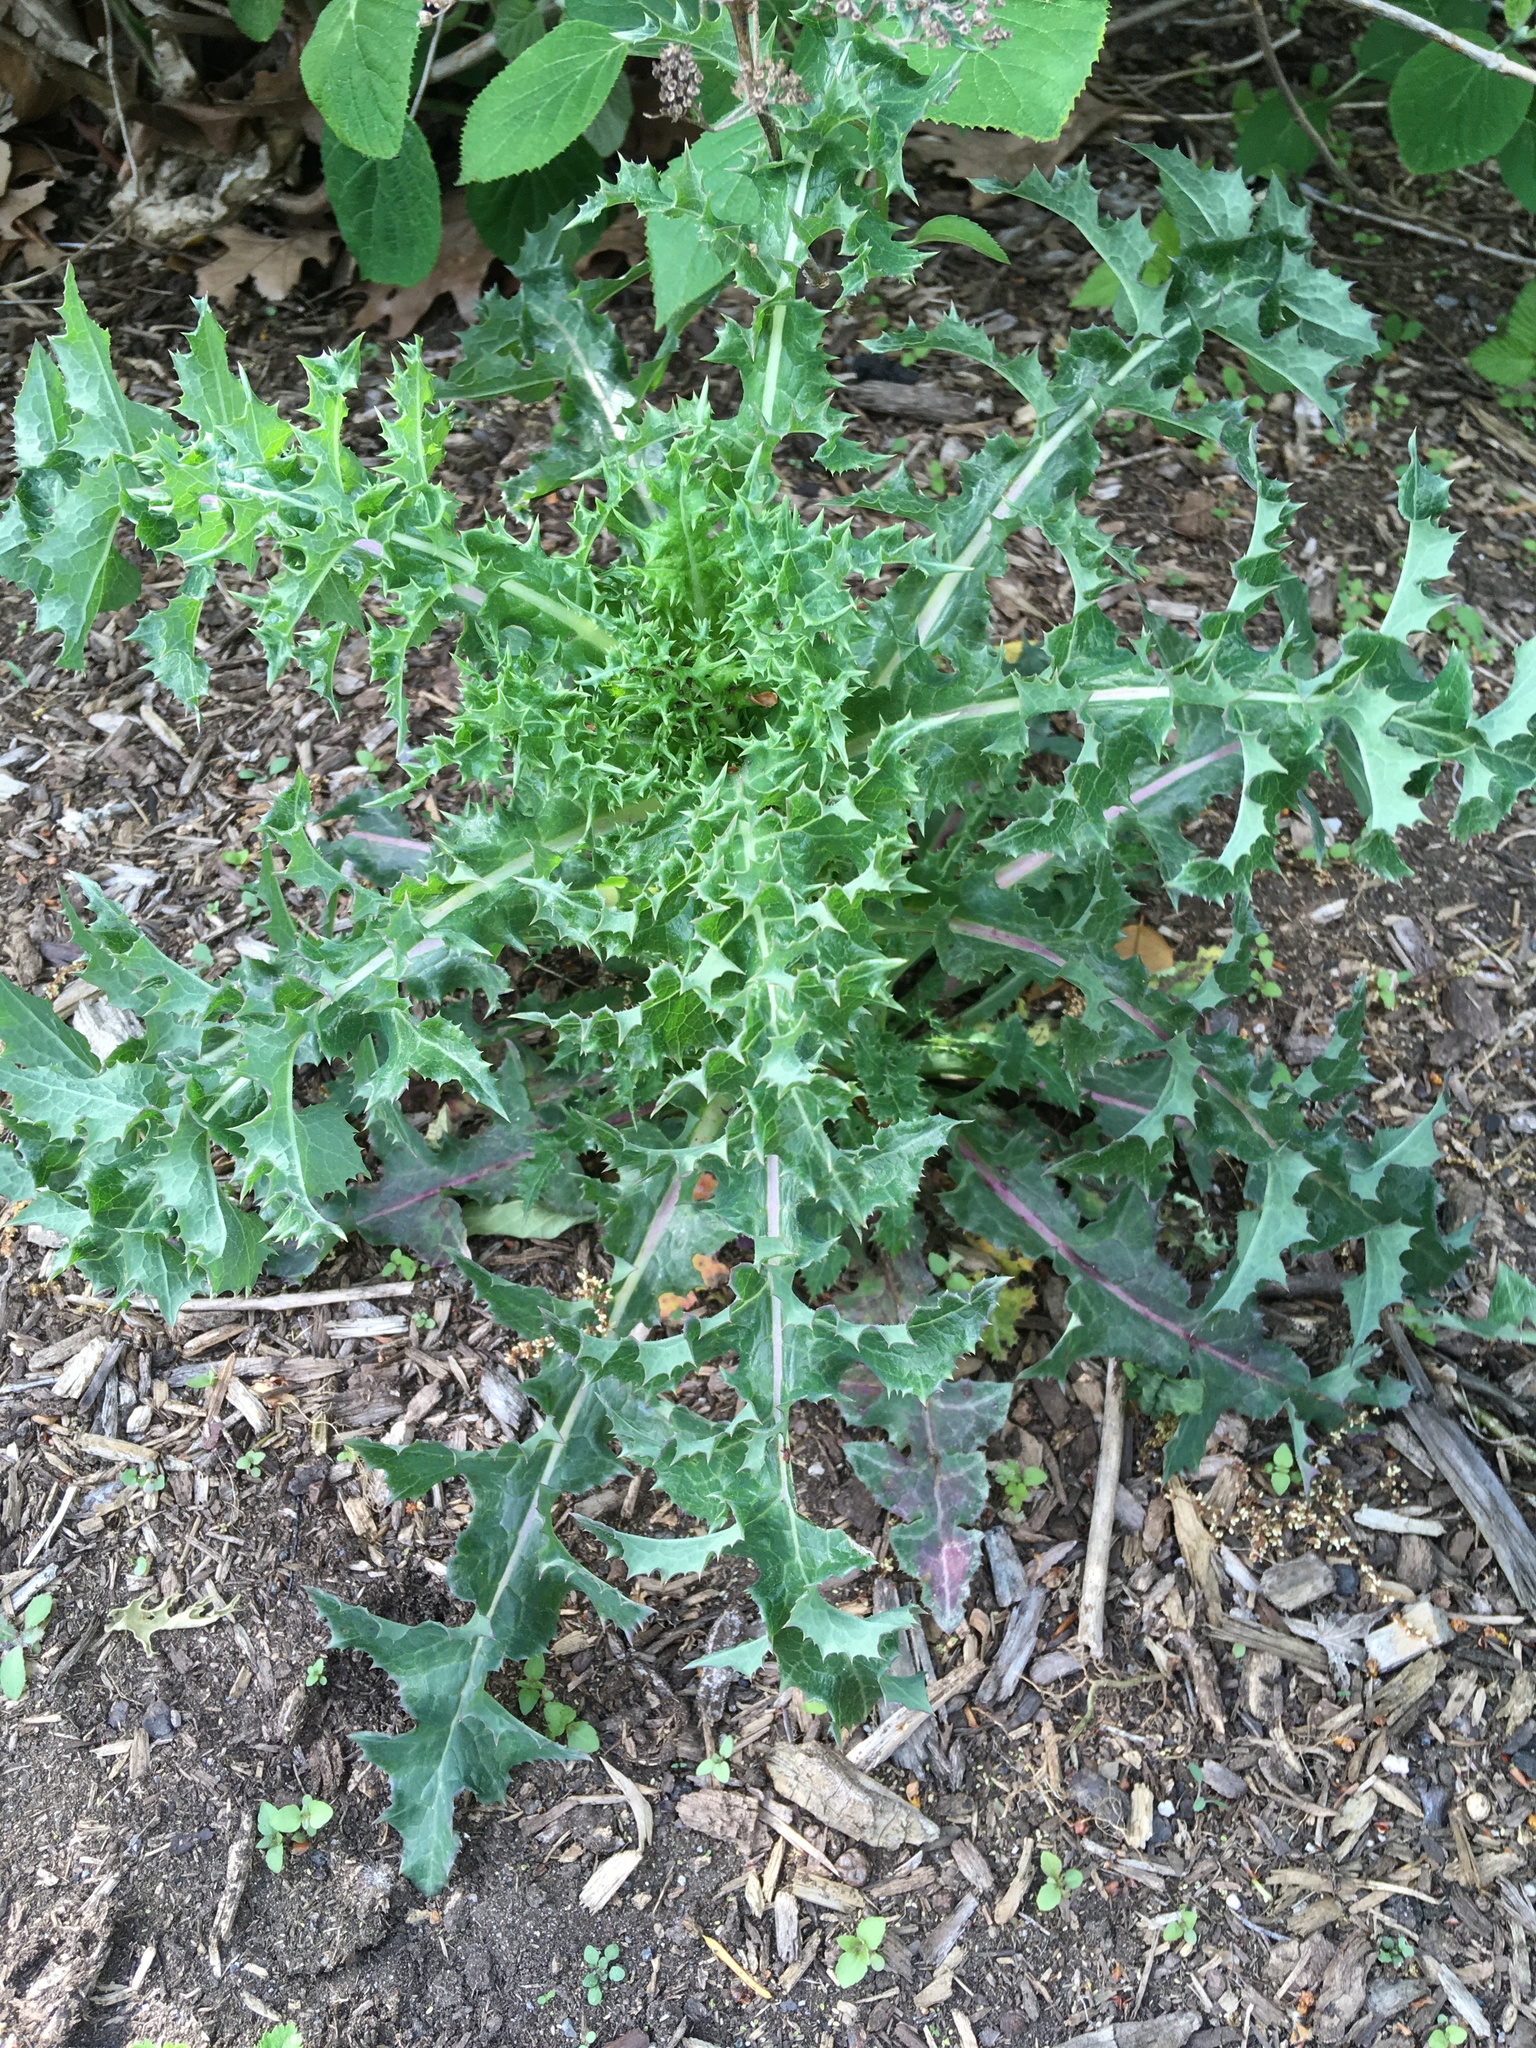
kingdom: Plantae
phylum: Tracheophyta
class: Magnoliopsida
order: Asterales
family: Asteraceae
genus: Sonchus
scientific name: Sonchus asper
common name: Prickly sow-thistle
